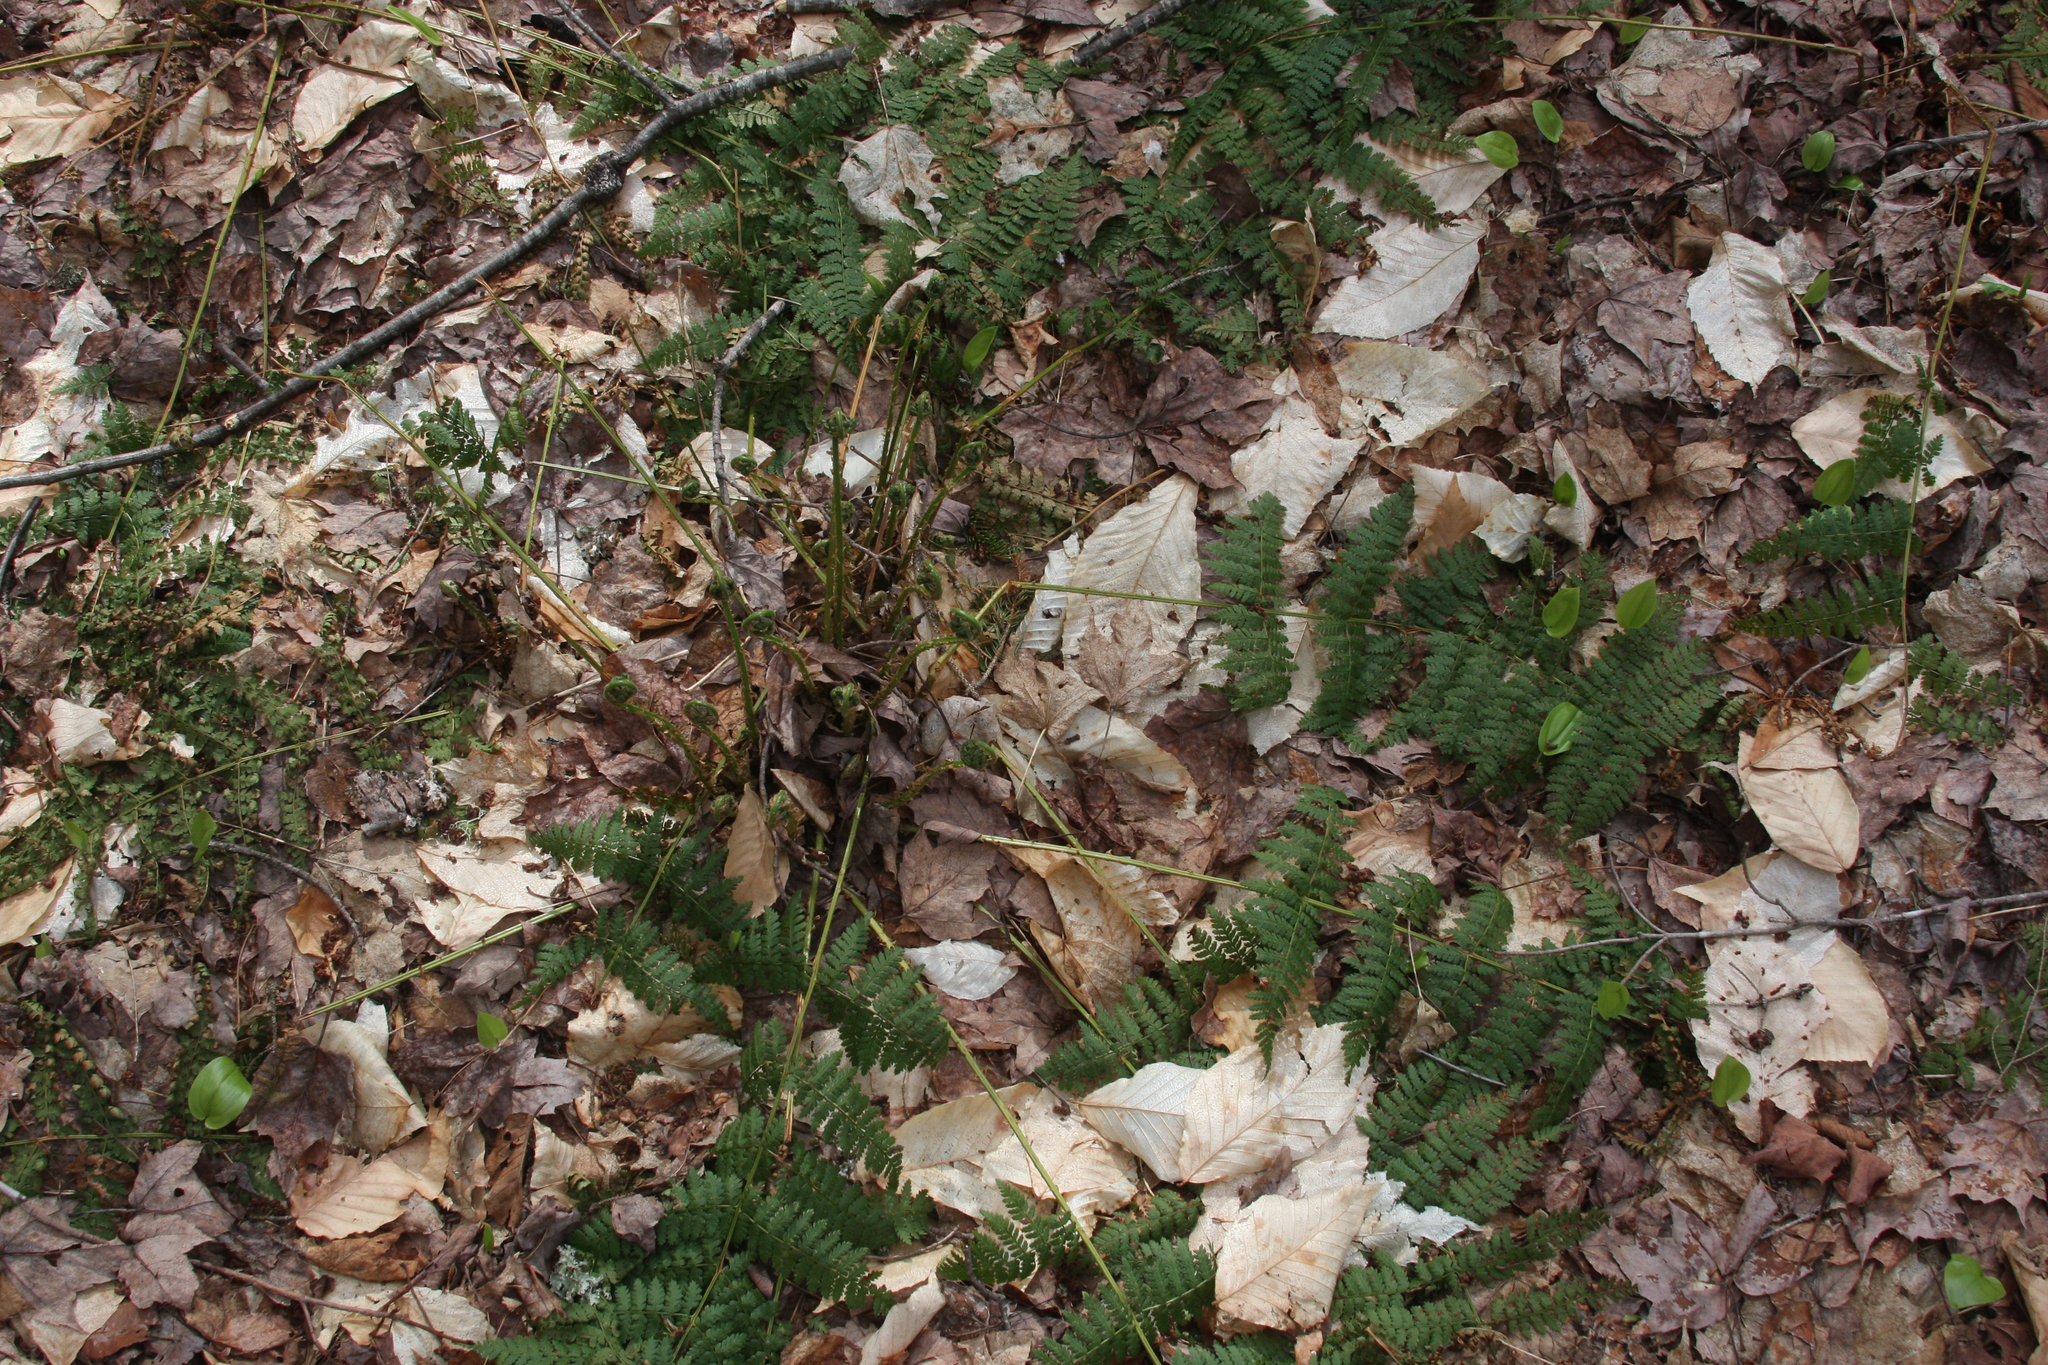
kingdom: Plantae
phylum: Tracheophyta
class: Polypodiopsida
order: Polypodiales
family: Dryopteridaceae
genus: Dryopteris
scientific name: Dryopteris intermedia
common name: Evergreen wood fern
